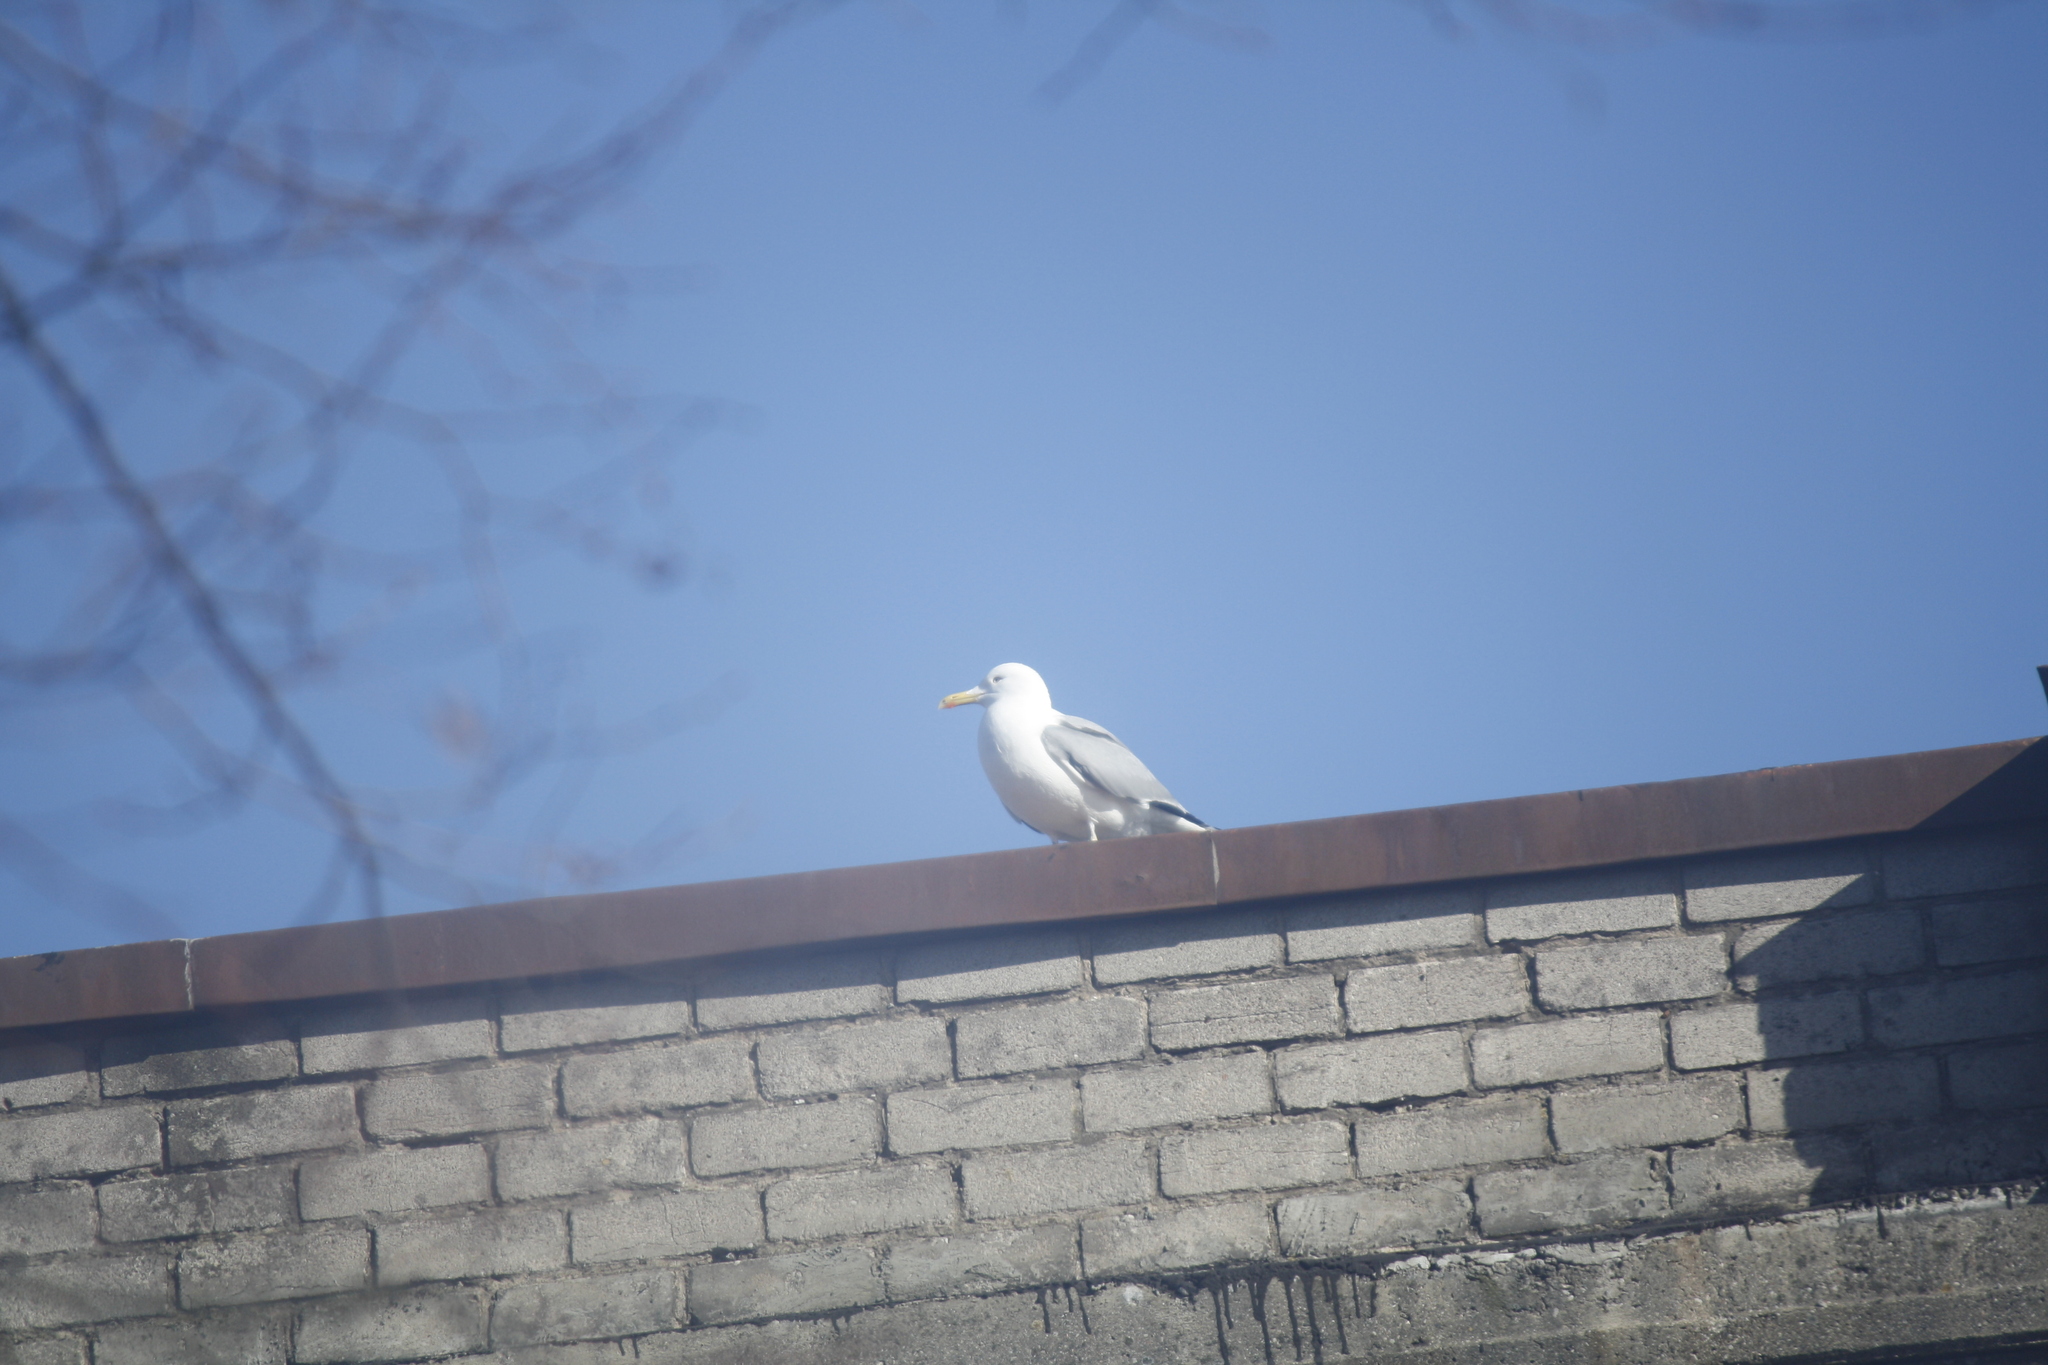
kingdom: Animalia
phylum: Chordata
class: Aves
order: Charadriiformes
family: Laridae
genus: Larus
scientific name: Larus argentatus
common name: Herring gull
